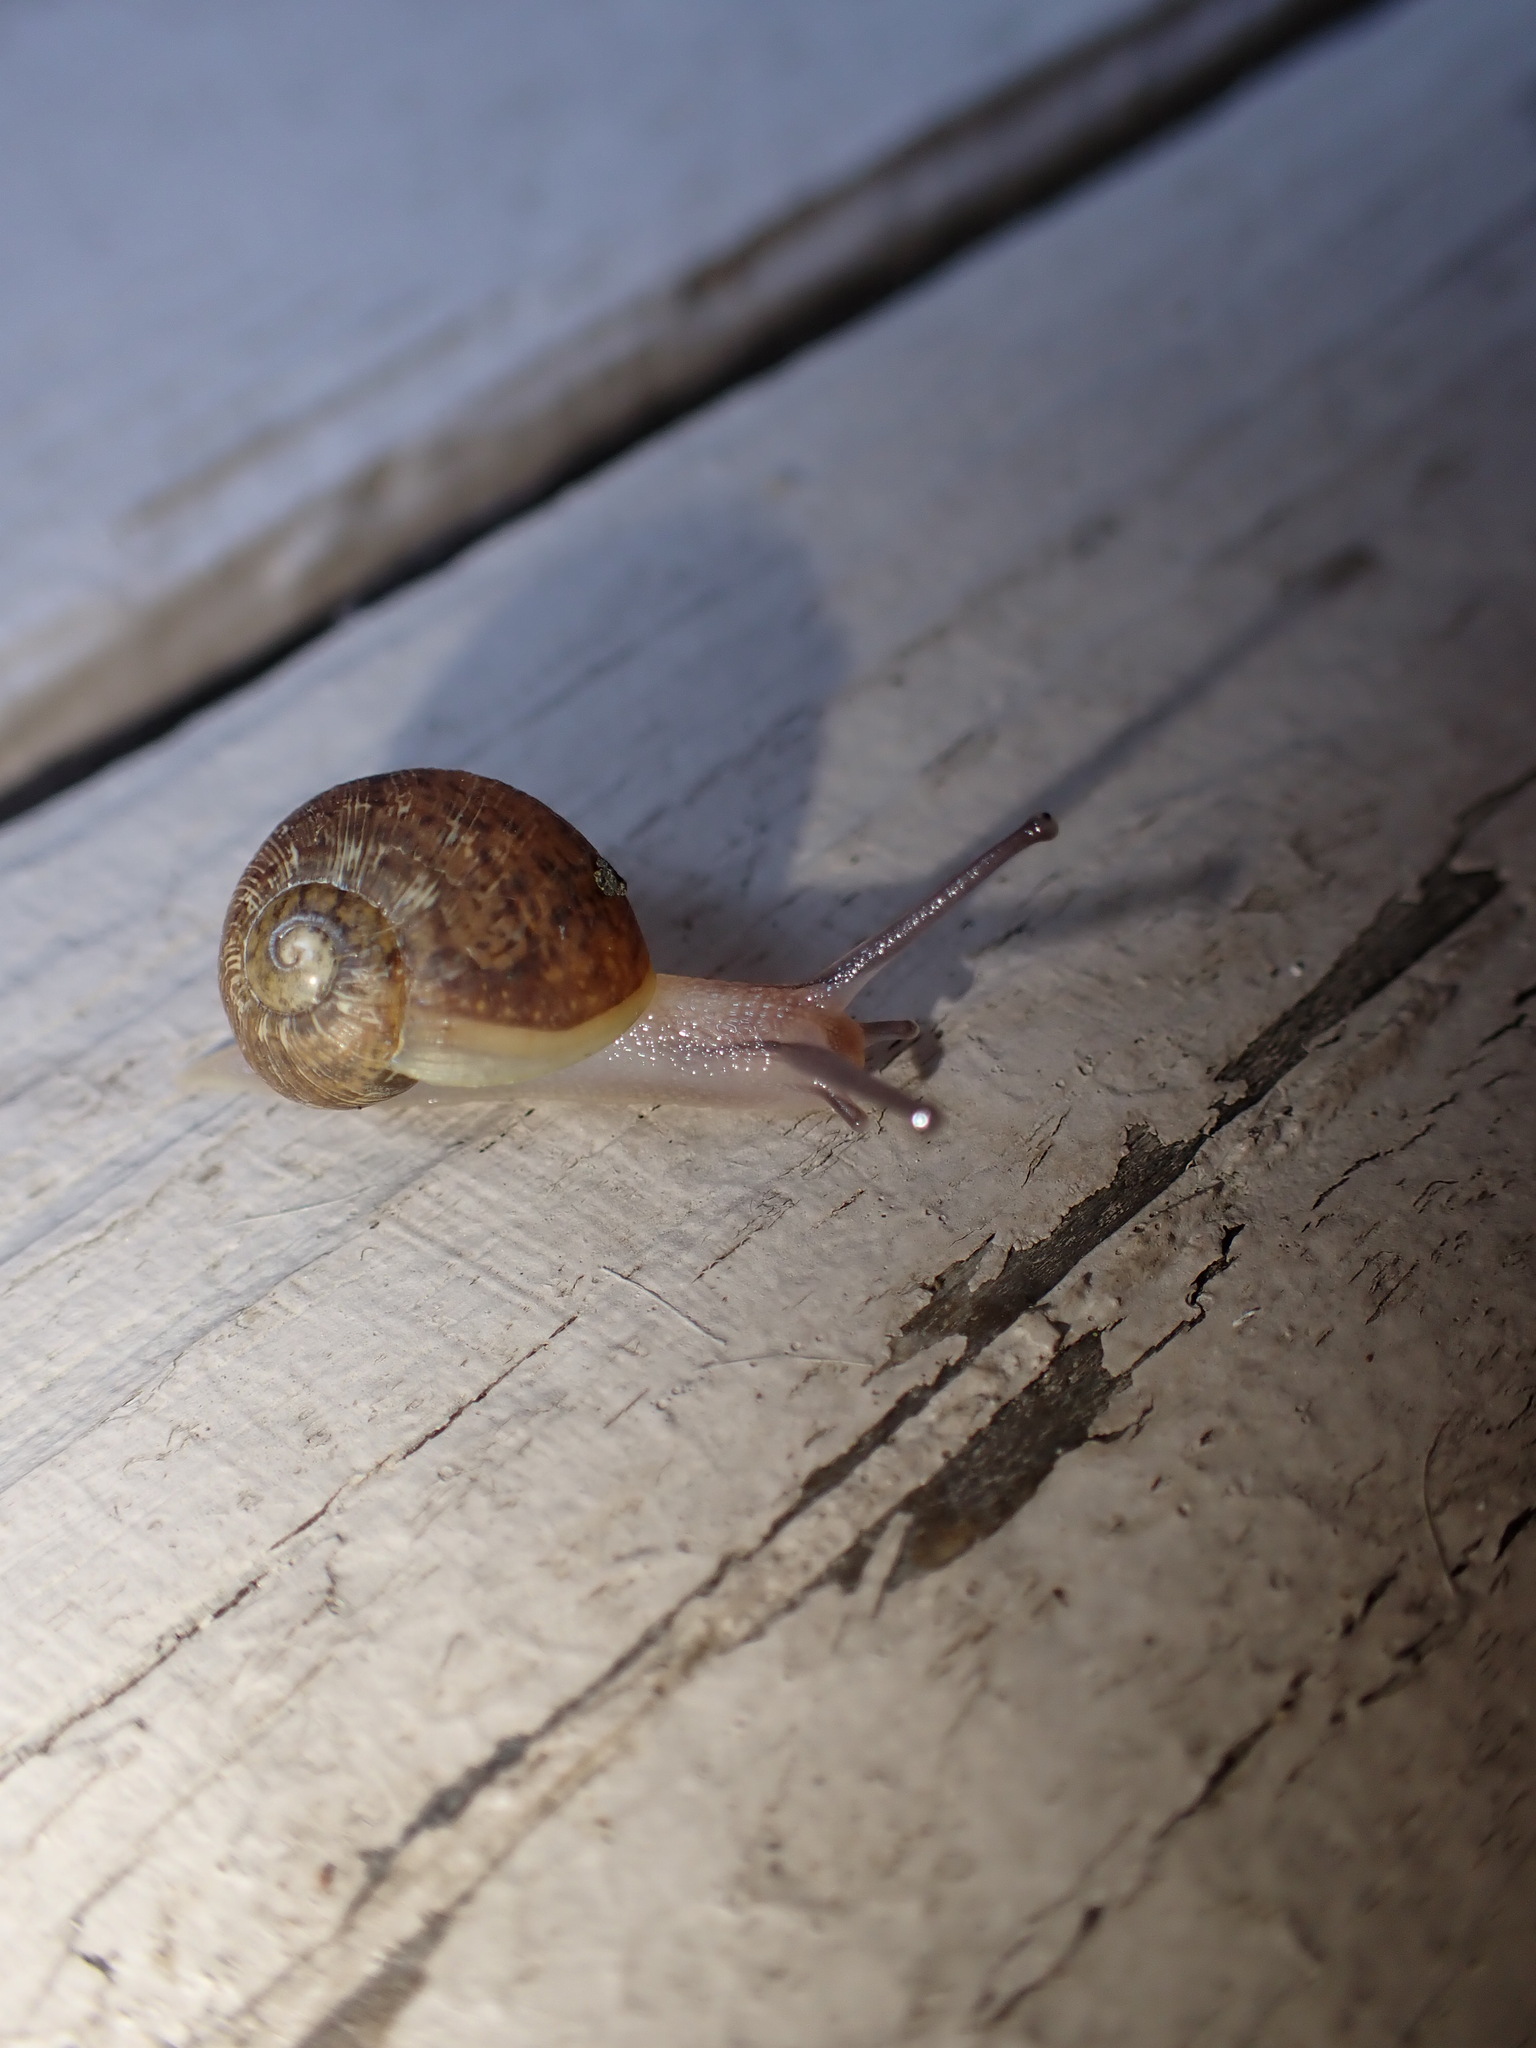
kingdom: Animalia
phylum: Mollusca
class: Gastropoda
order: Stylommatophora
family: Helicidae
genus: Cornu
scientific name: Cornu aspersum
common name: Brown garden snail
